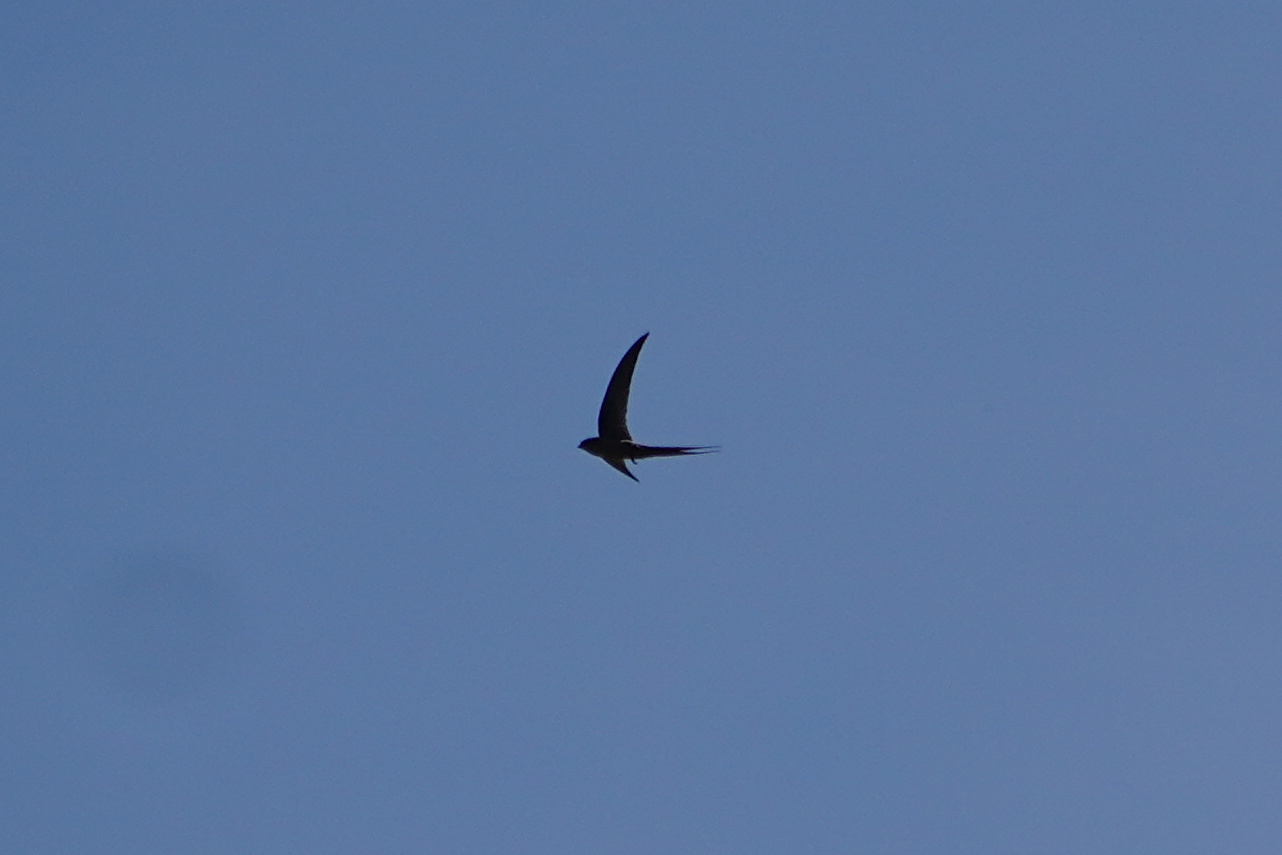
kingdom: Animalia
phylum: Chordata
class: Aves
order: Apodiformes
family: Apodidae
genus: Cypsiurus
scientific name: Cypsiurus parvus
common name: African palm swift
